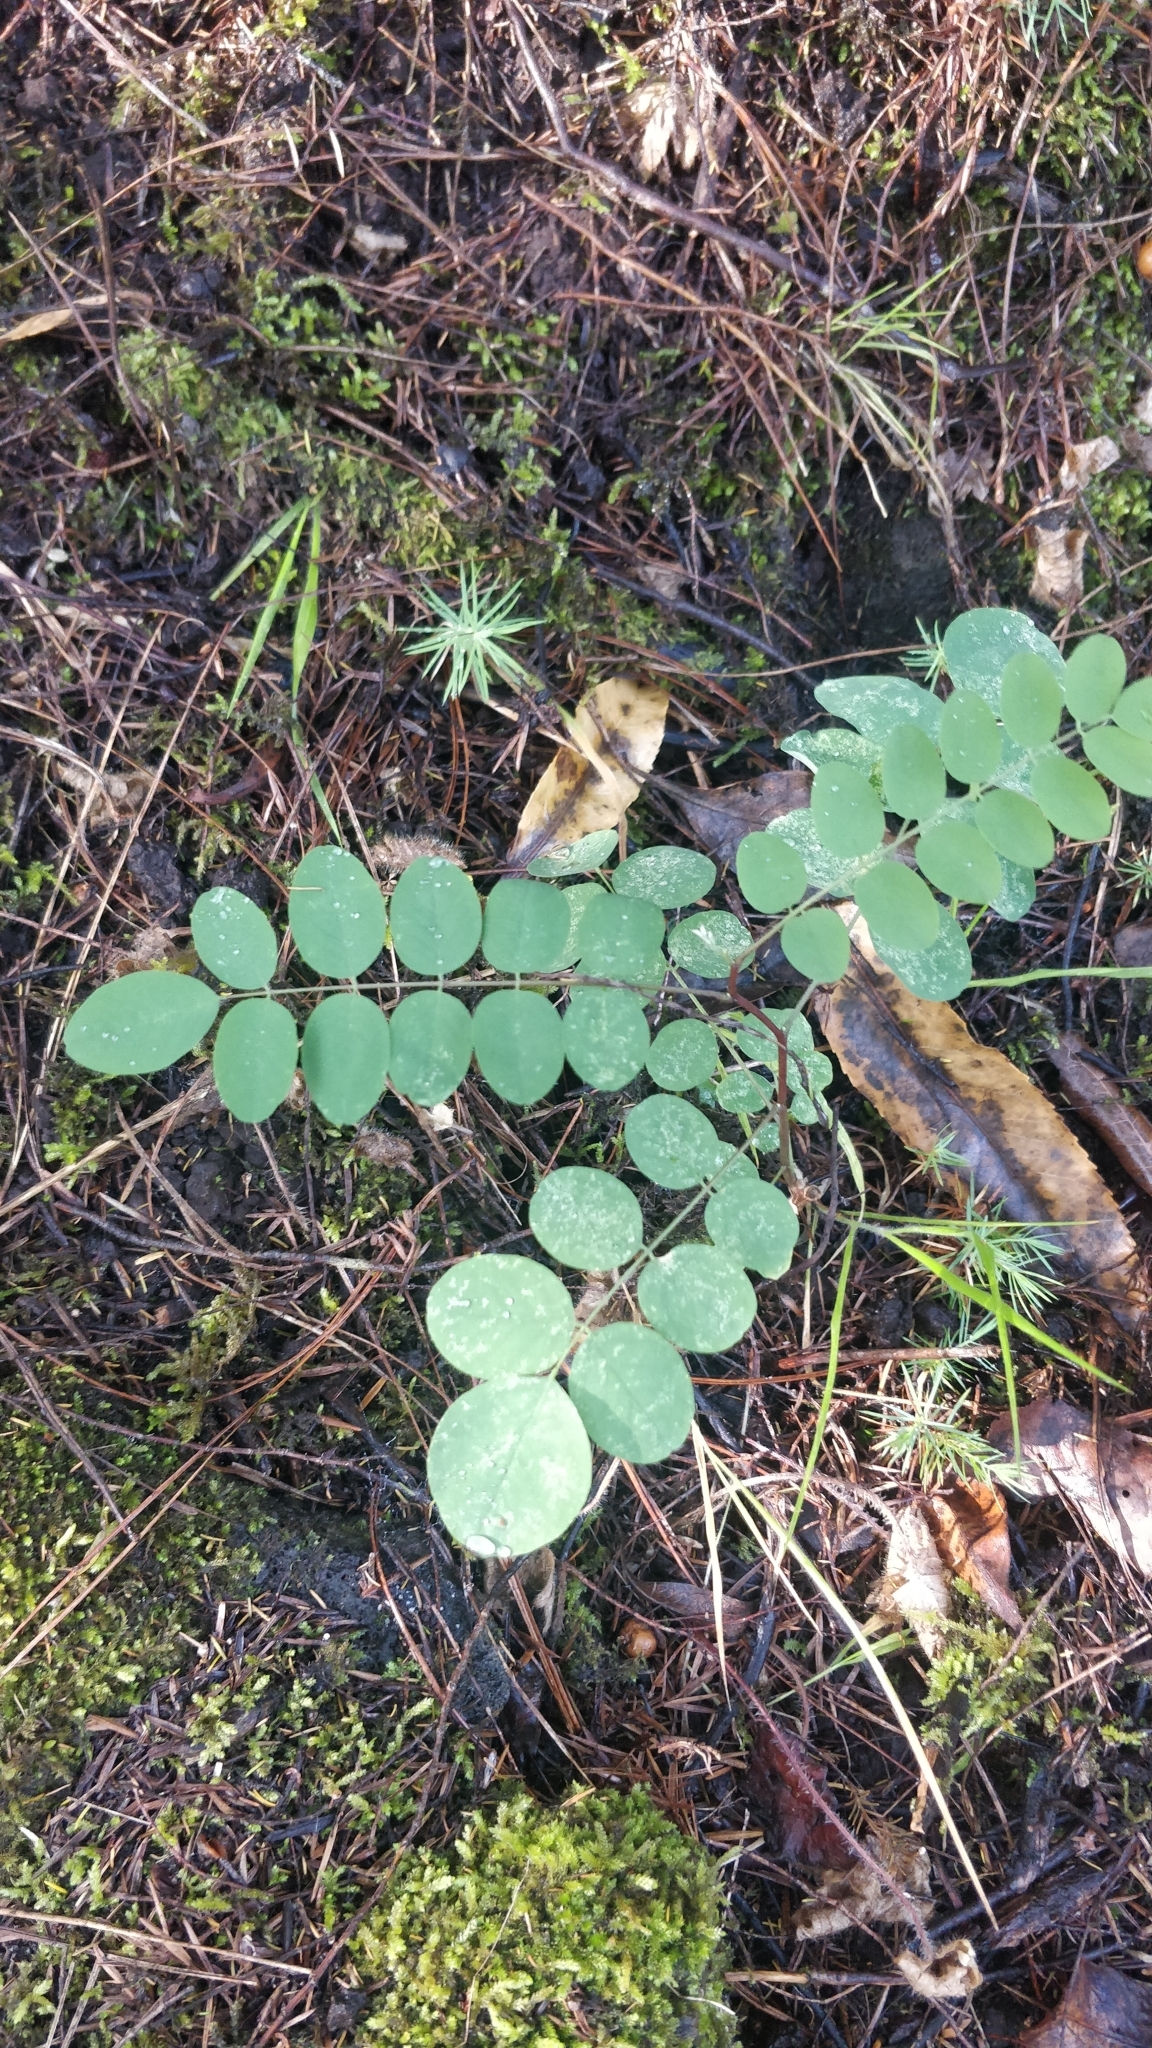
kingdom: Plantae
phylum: Tracheophyta
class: Magnoliopsida
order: Fabales
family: Fabaceae
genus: Robinia
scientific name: Robinia pseudoacacia
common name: Black locust
